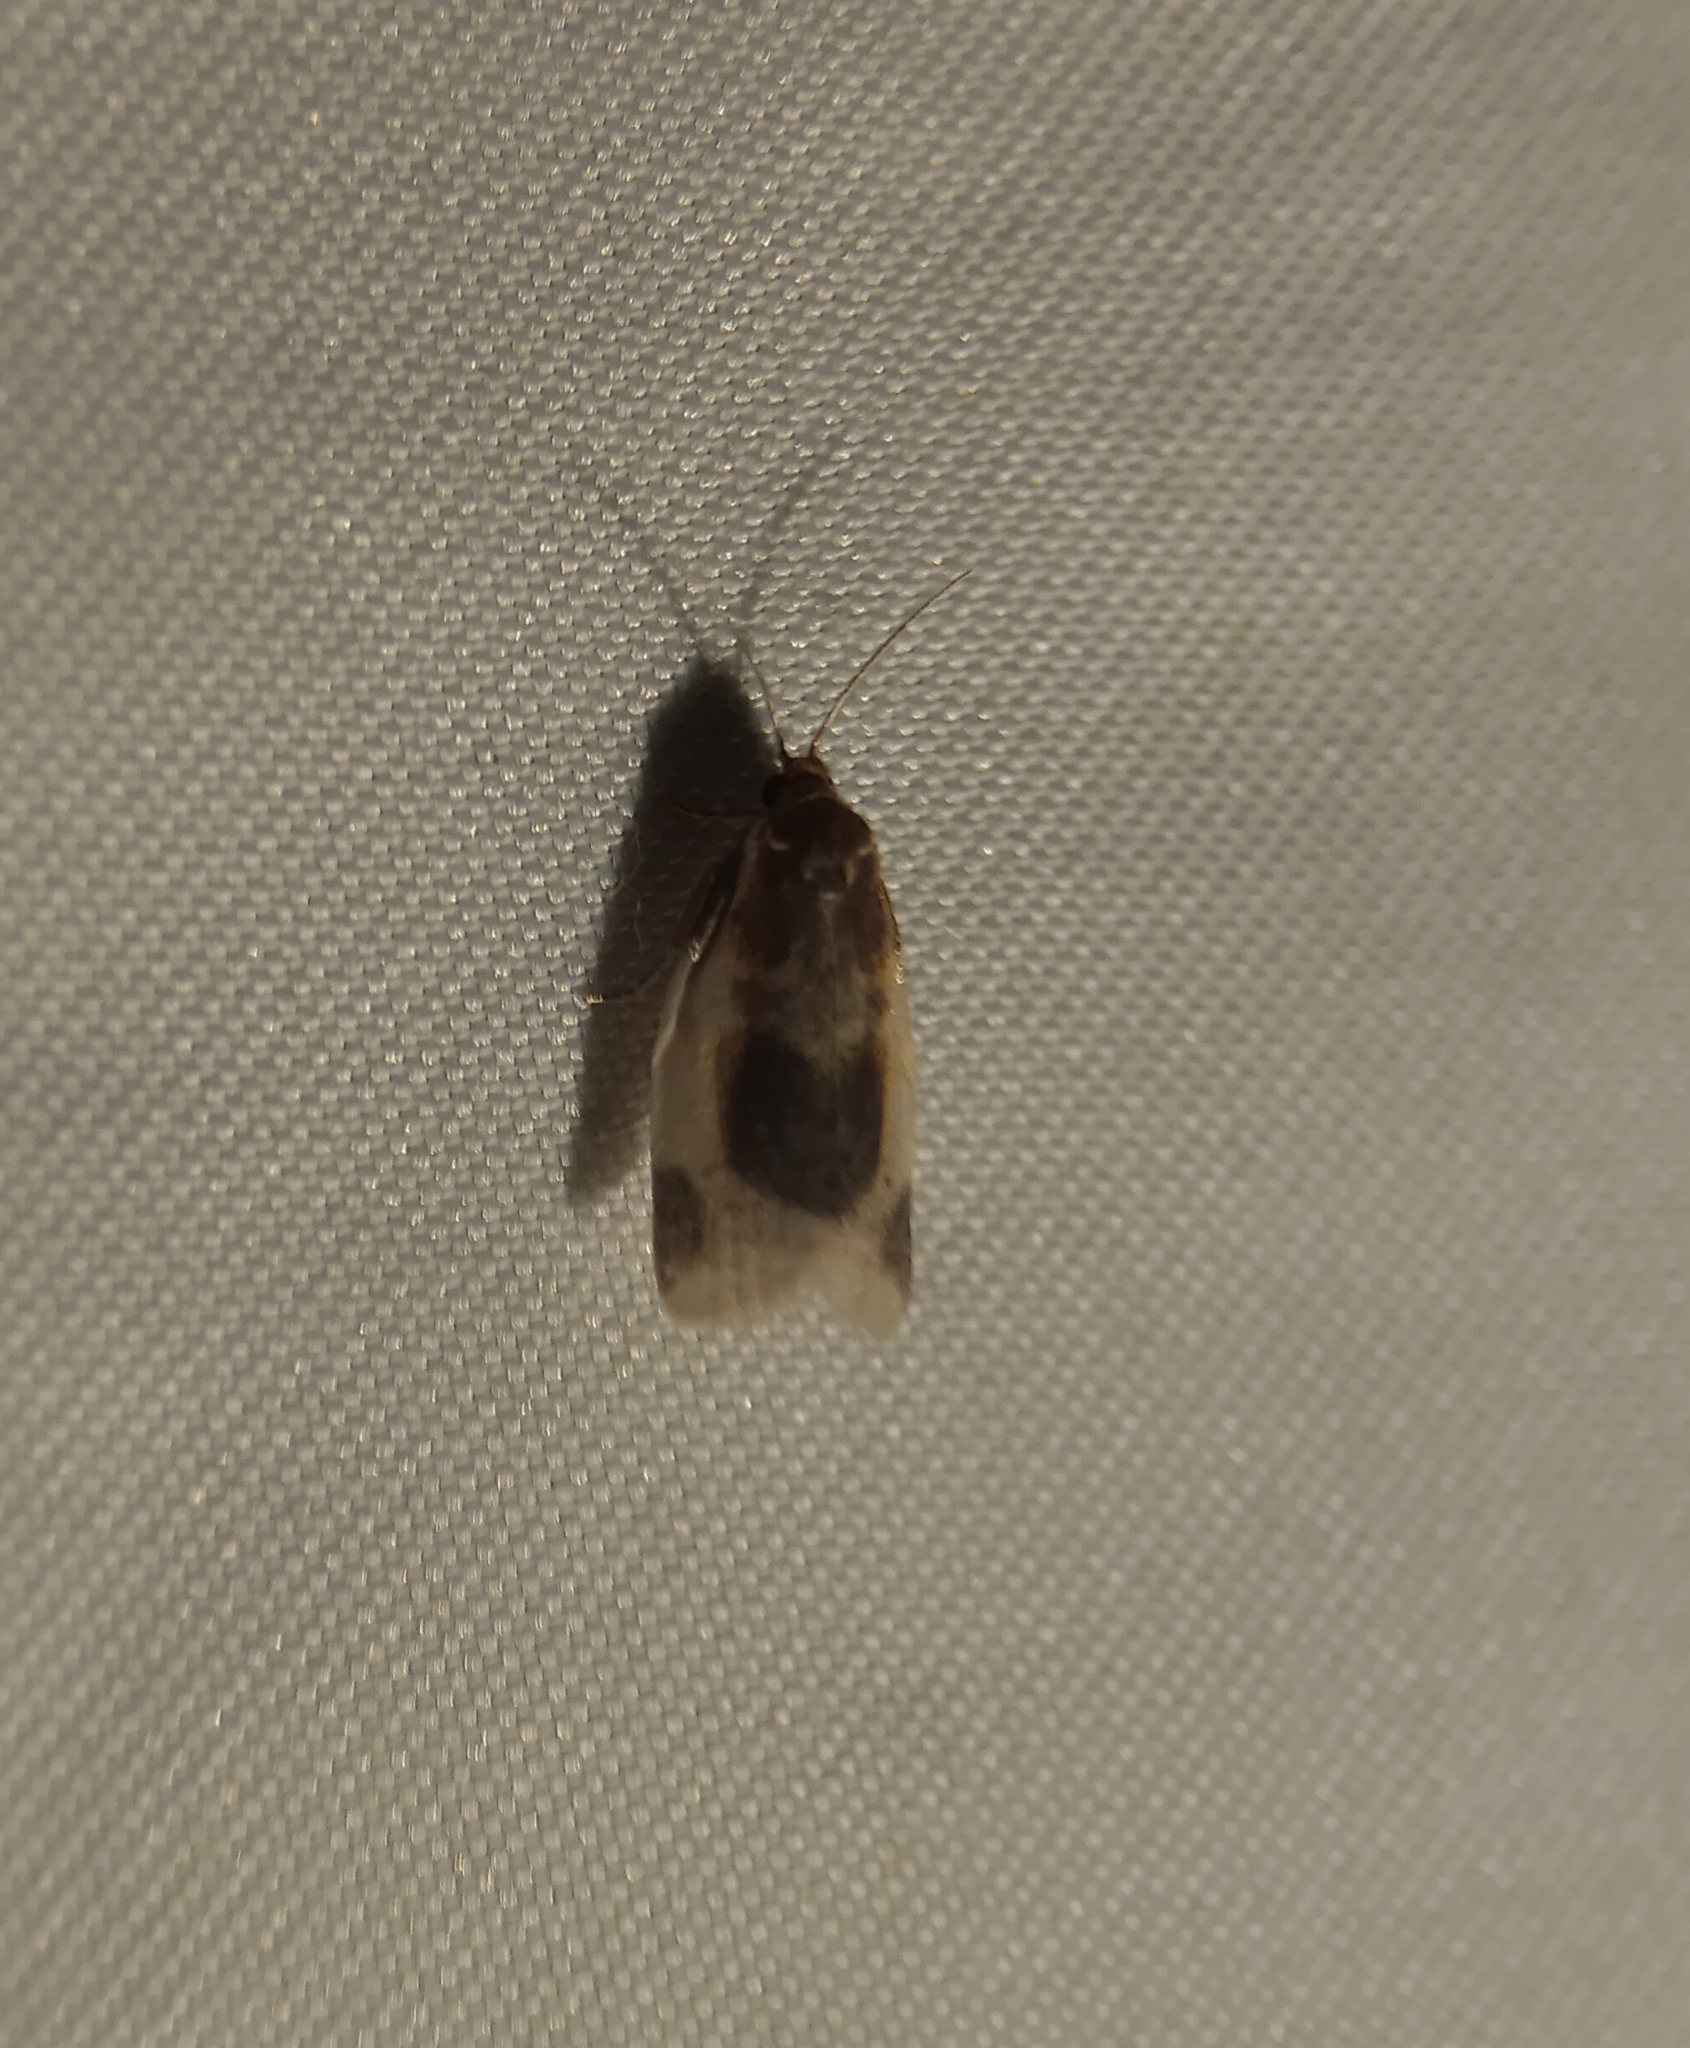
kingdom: Animalia
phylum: Arthropoda
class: Insecta
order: Lepidoptera
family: Tortricidae
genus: Clepsis
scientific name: Clepsis melaleucanus
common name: American apple tortrix
